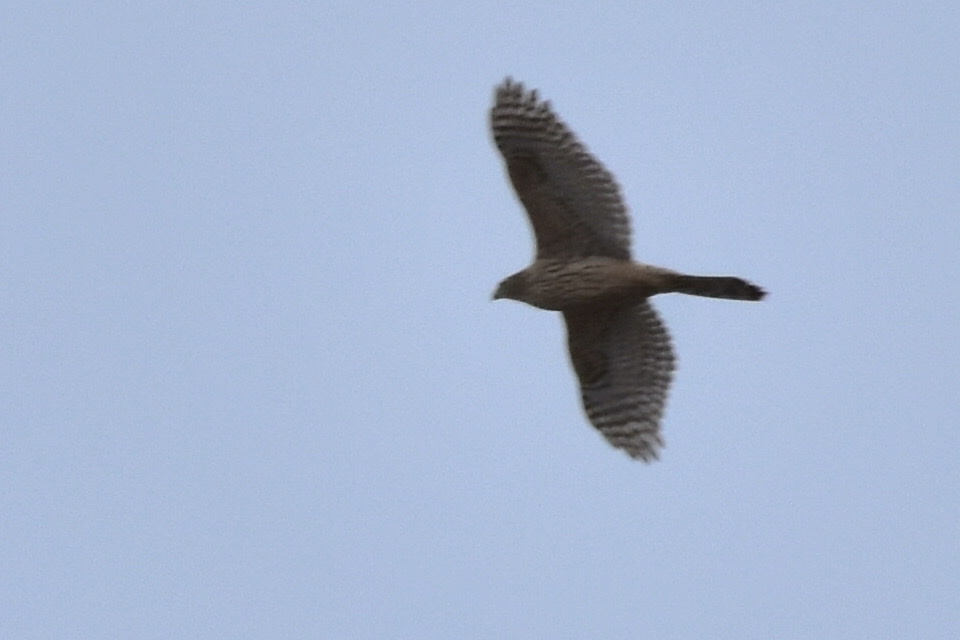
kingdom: Animalia
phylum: Chordata
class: Aves
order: Accipitriformes
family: Accipitridae
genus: Accipiter
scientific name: Accipiter gentilis
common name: Northern goshawk
